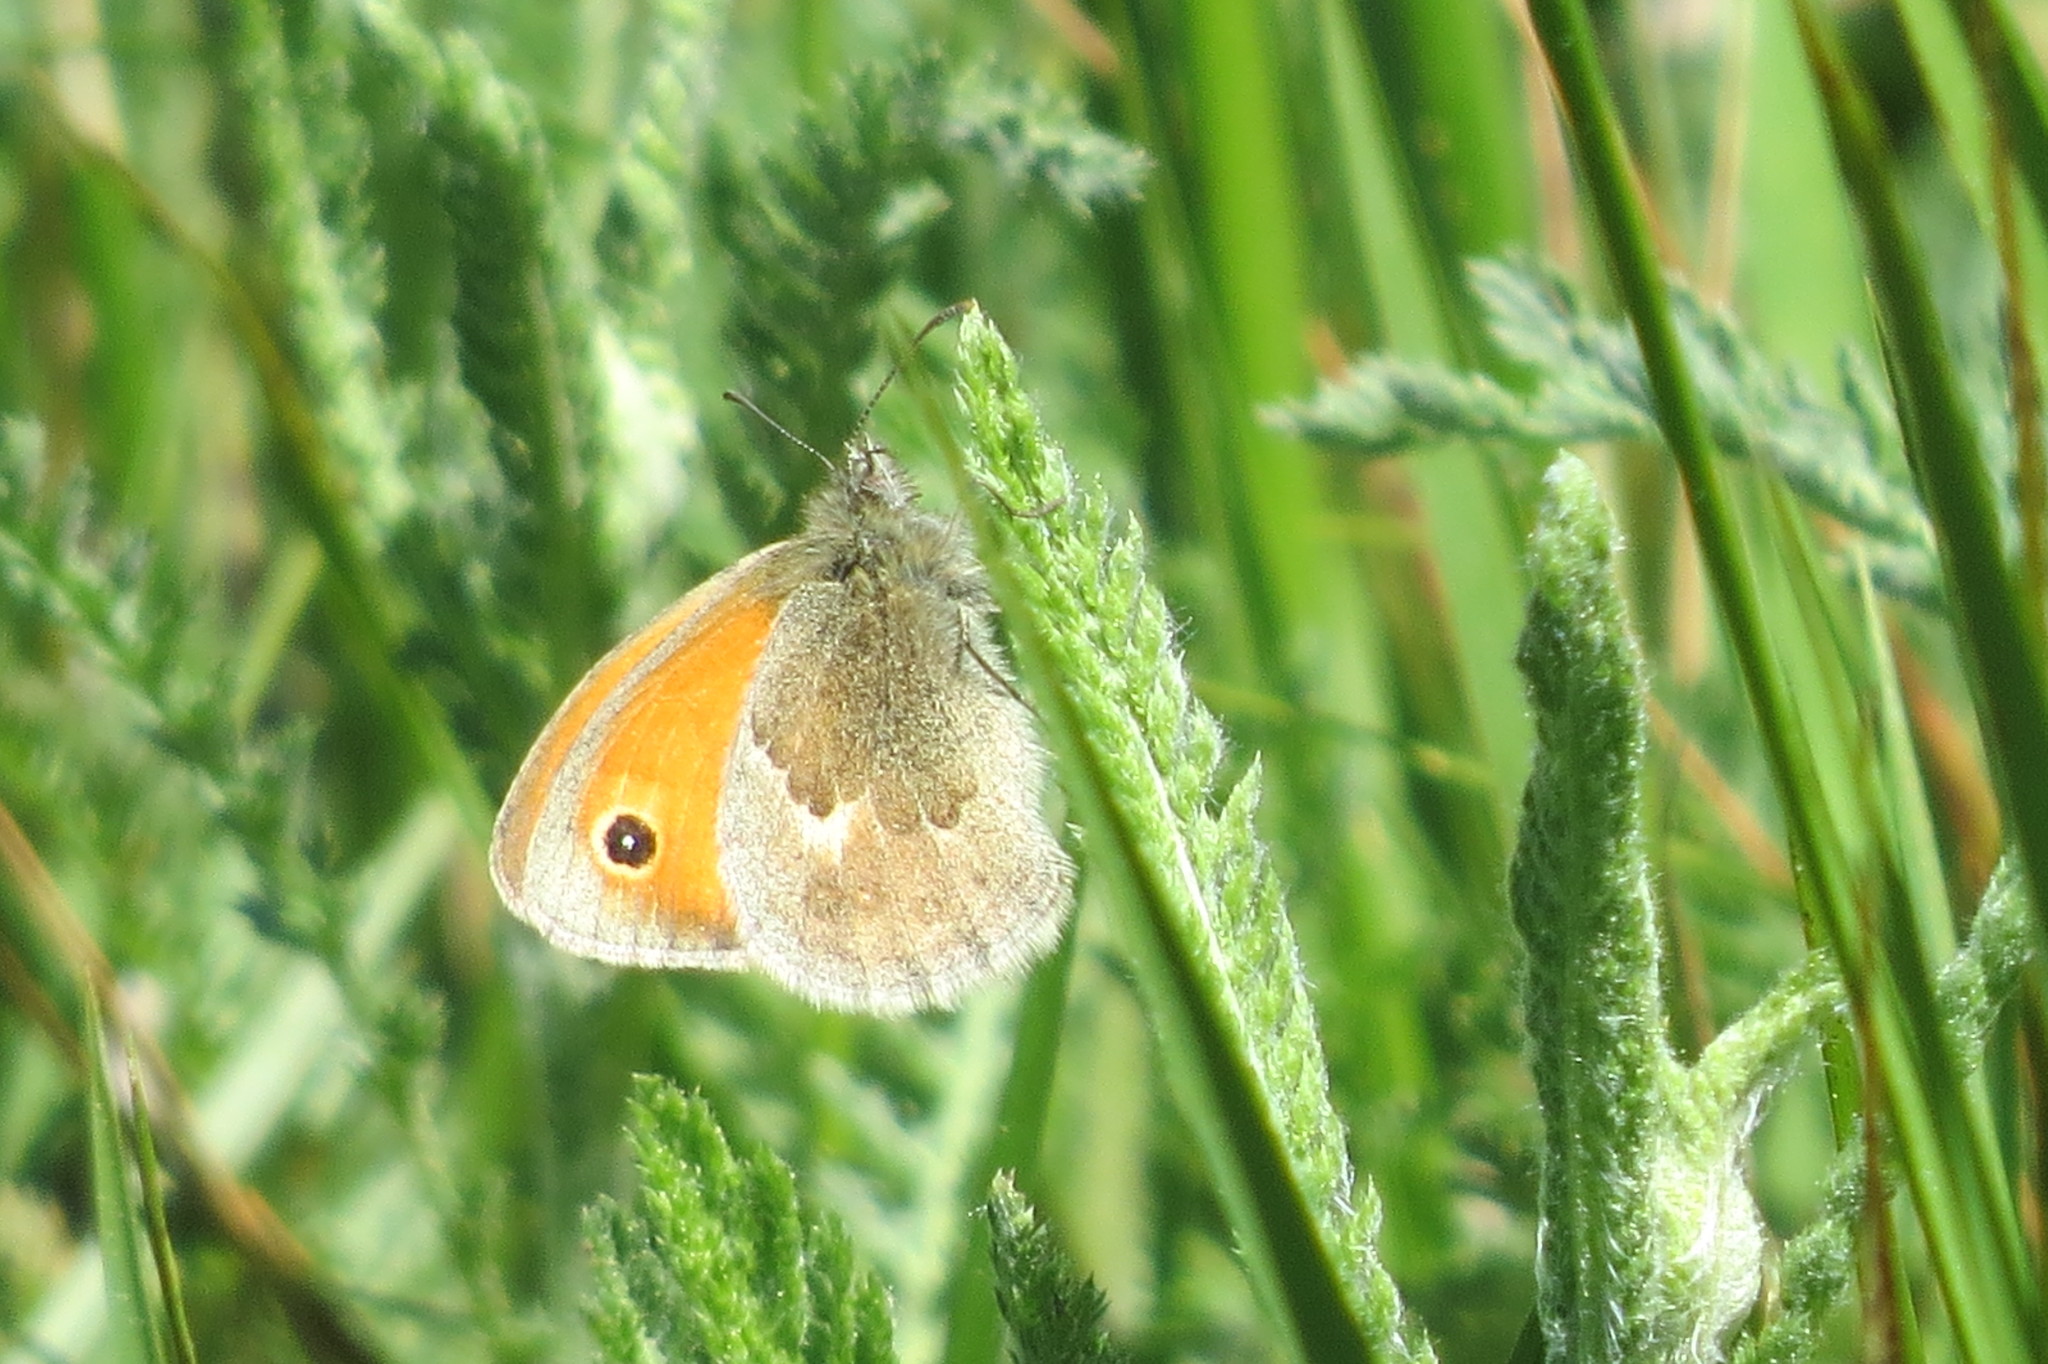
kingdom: Animalia
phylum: Arthropoda
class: Insecta
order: Lepidoptera
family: Nymphalidae
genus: Coenonympha
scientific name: Coenonympha pamphilus
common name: Small heath
